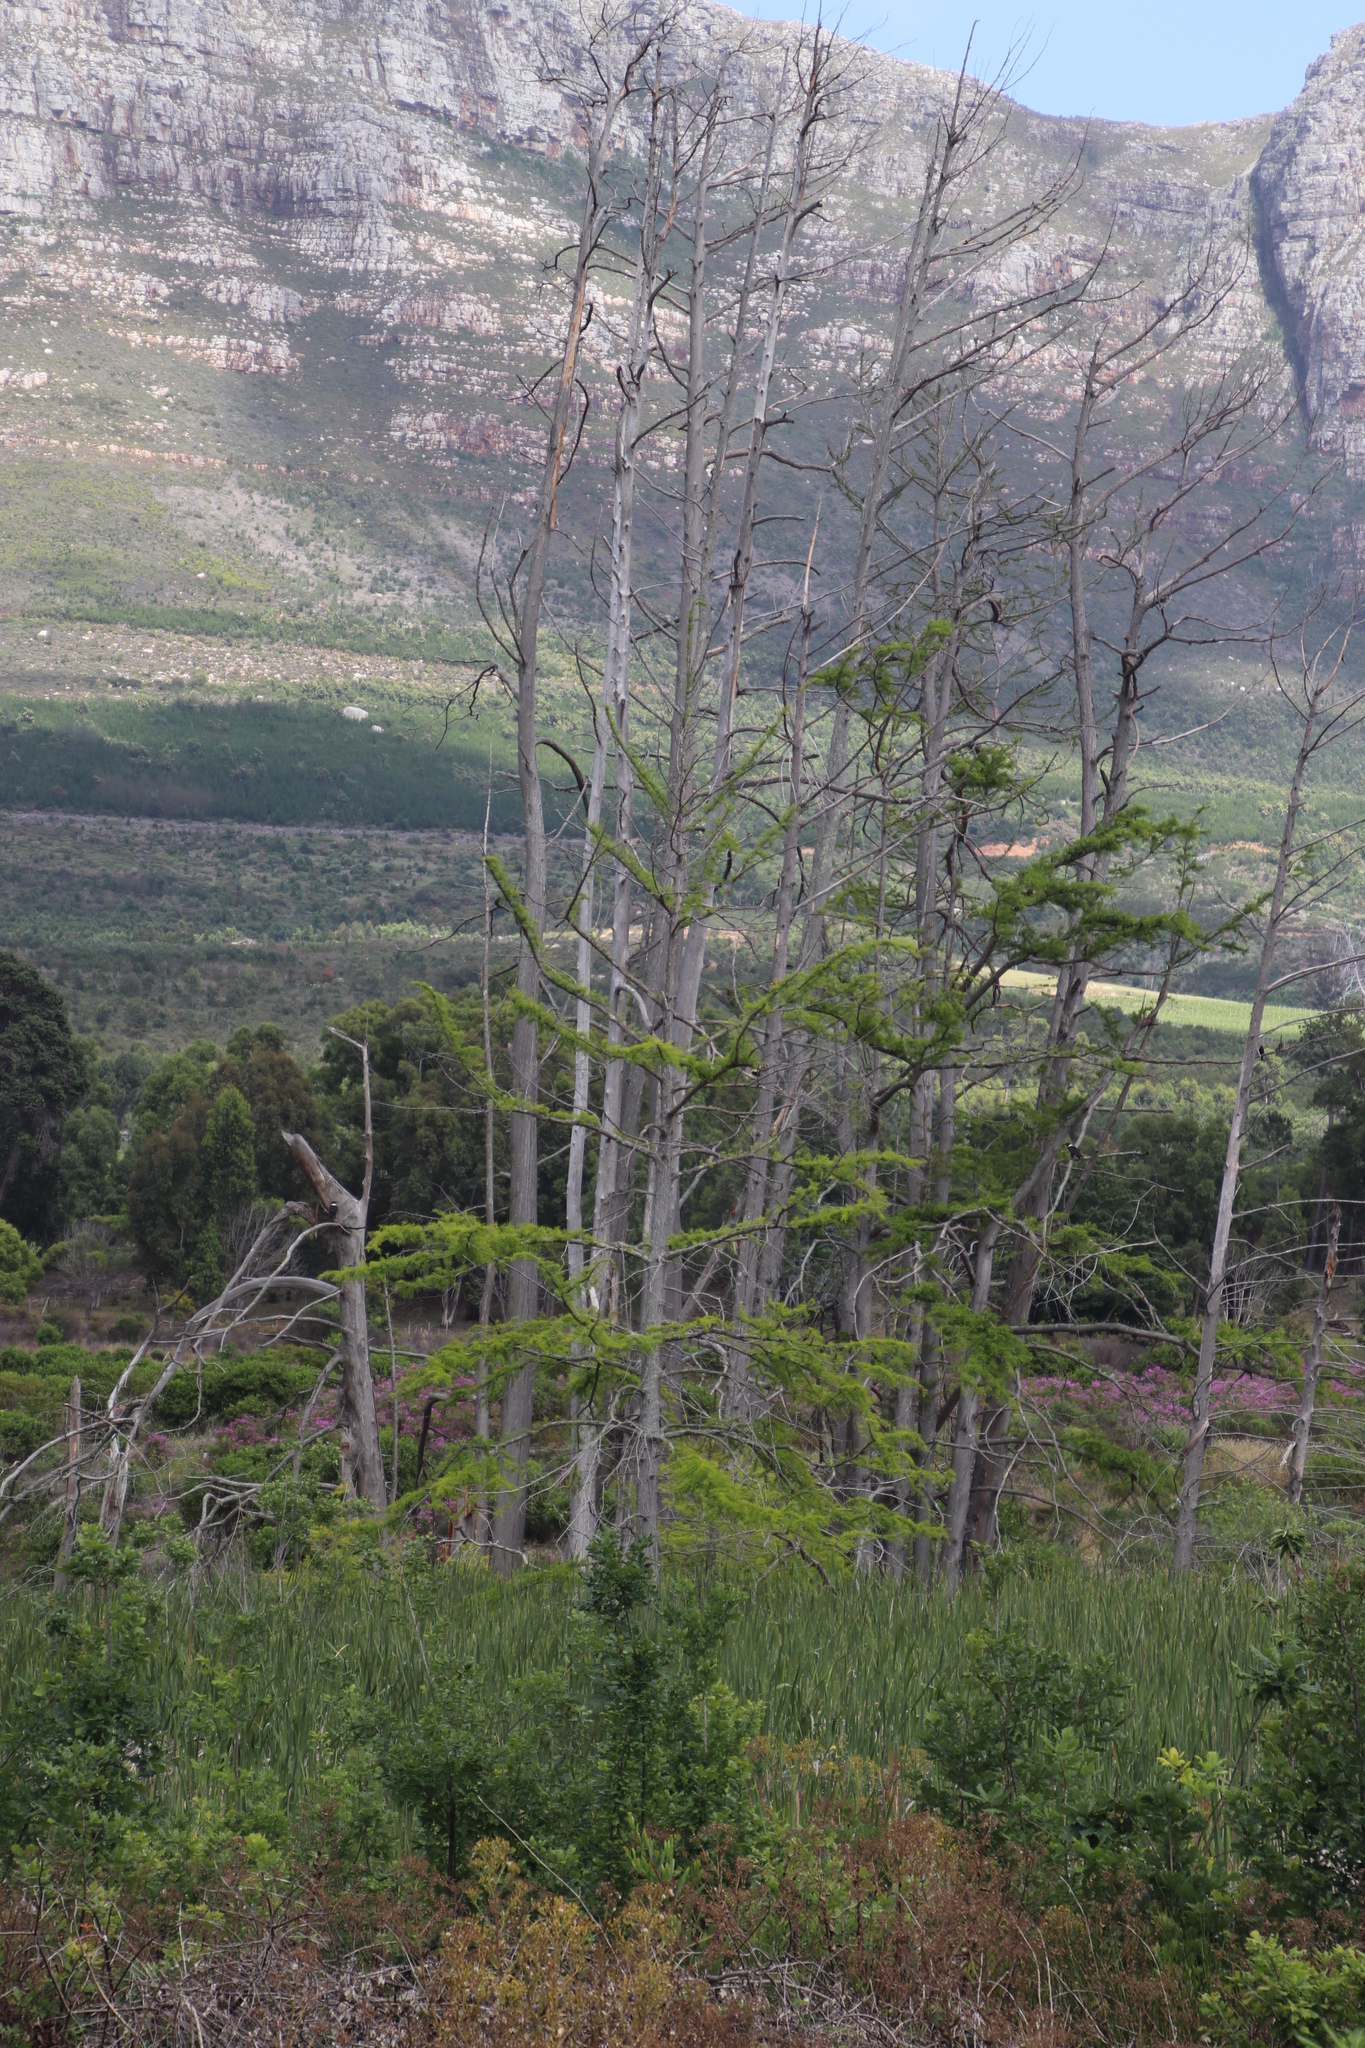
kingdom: Plantae
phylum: Tracheophyta
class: Pinopsida
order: Pinales
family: Cupressaceae
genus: Taxodium
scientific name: Taxodium distichum
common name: Bald cypress
